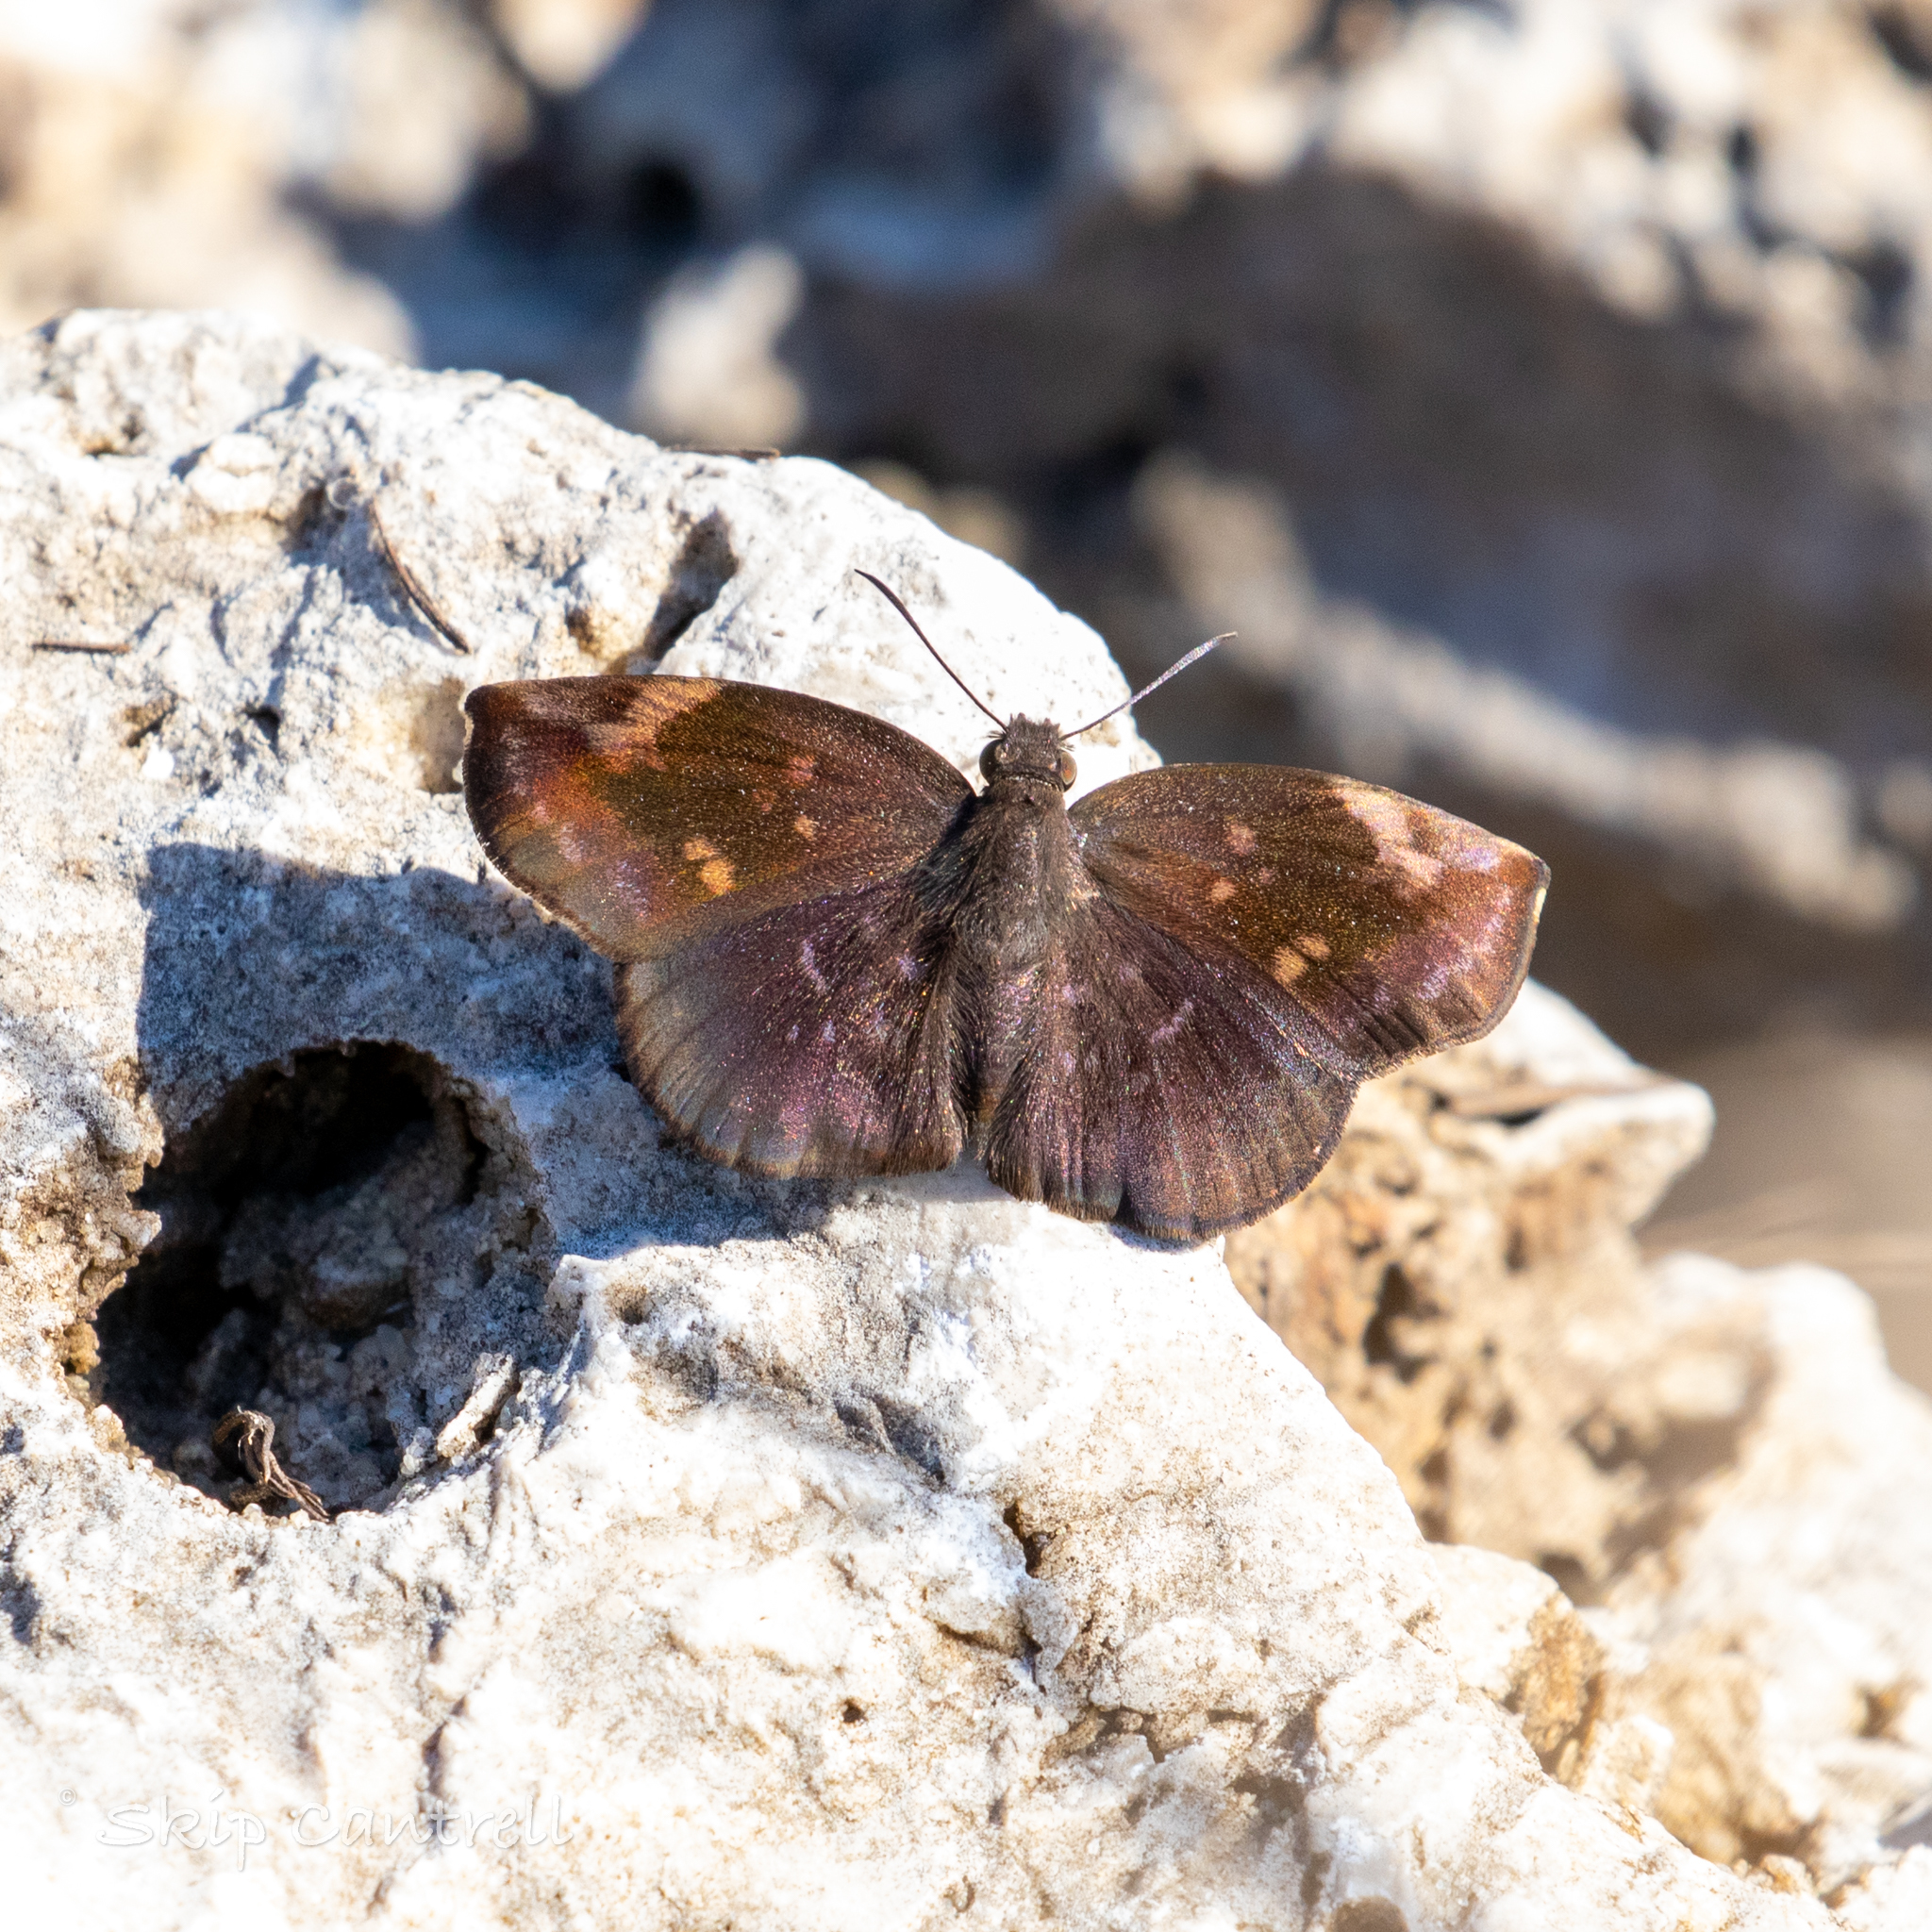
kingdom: Animalia
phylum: Arthropoda
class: Insecta
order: Lepidoptera
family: Hesperiidae
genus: Achlyodes
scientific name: Achlyodes thraso
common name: Sickle-winged skipper
